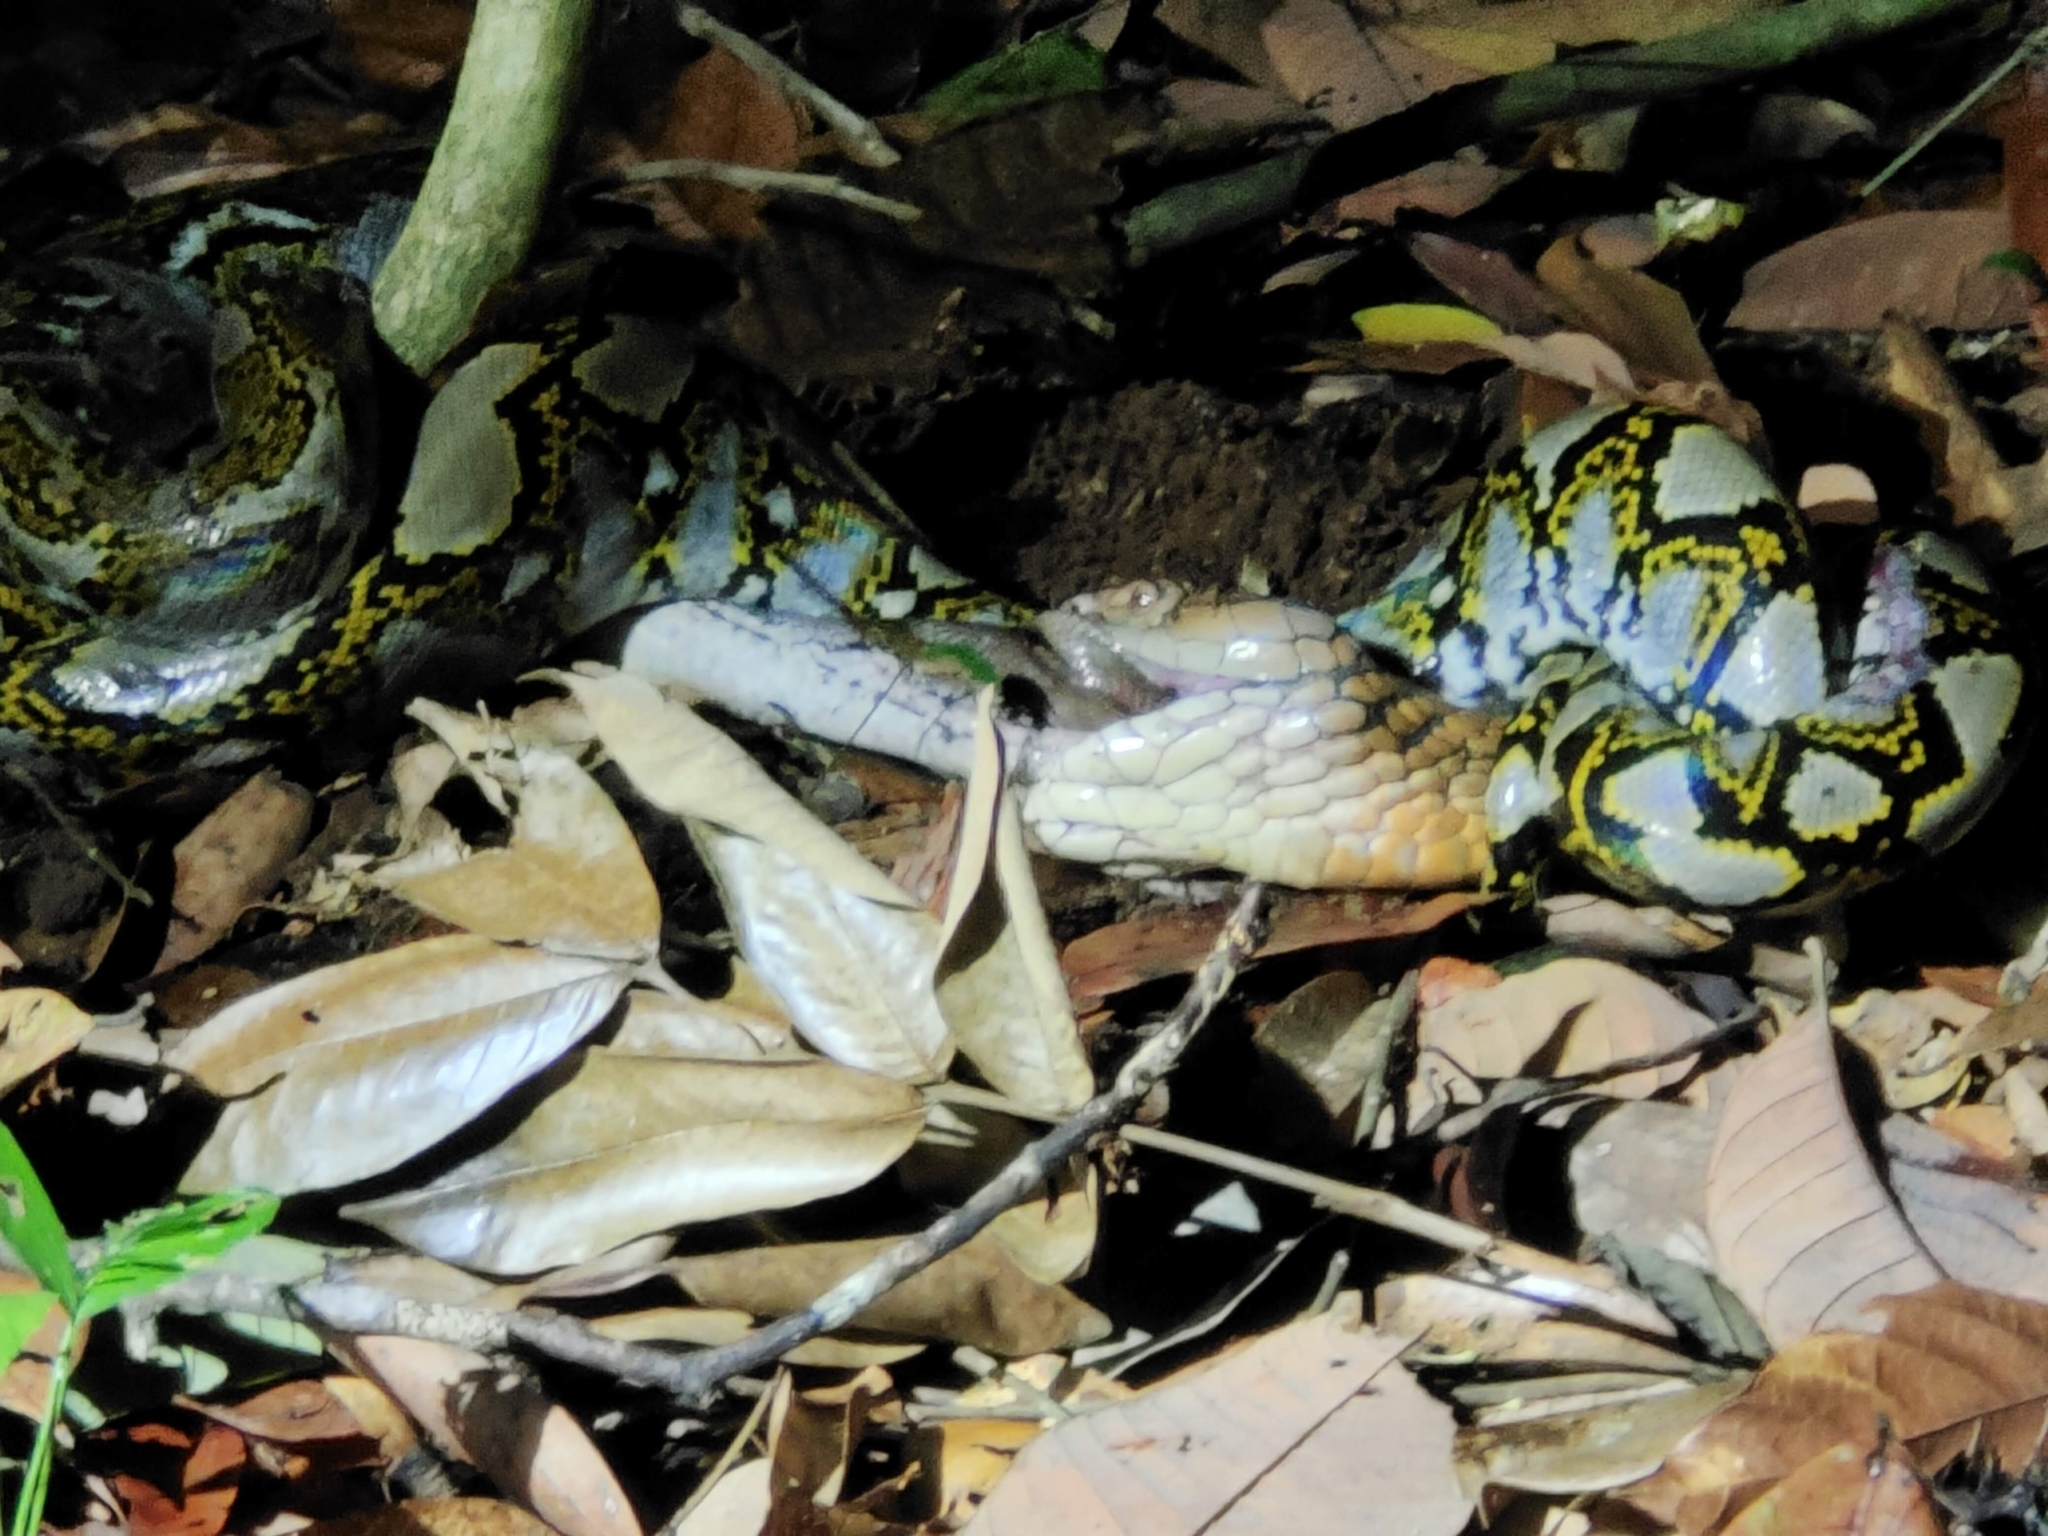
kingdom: Animalia
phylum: Chordata
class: Squamata
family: Elapidae
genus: Ophiophagus
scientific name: Ophiophagus hannah
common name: Hamadryad
